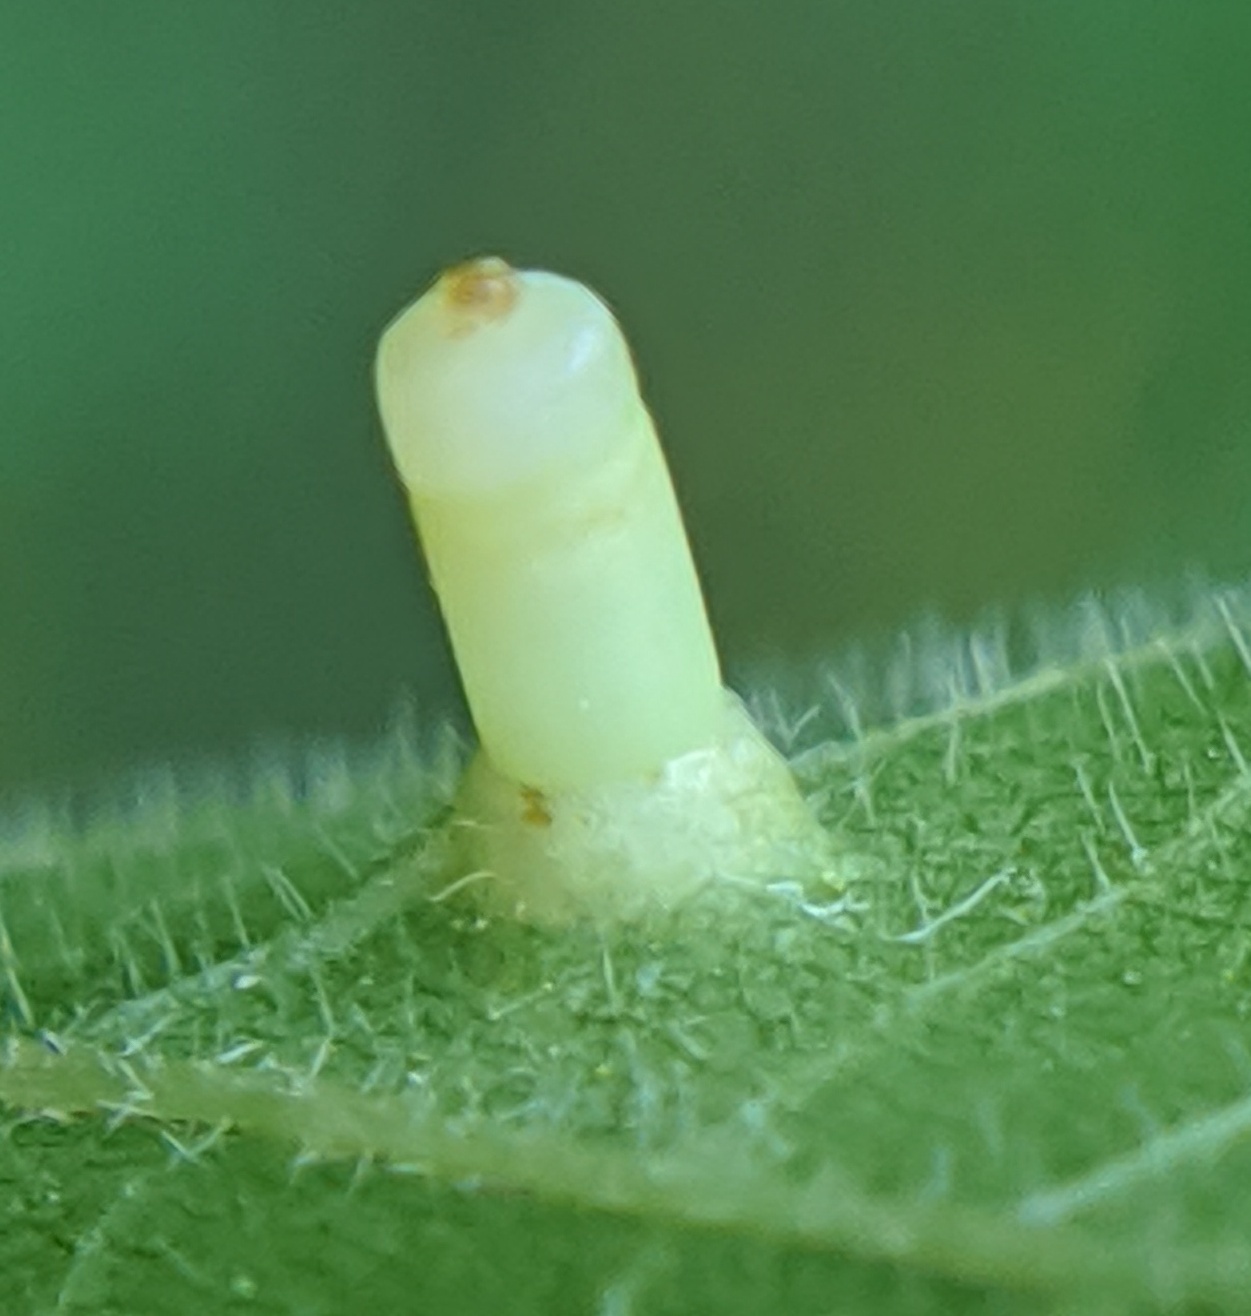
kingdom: Animalia
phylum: Arthropoda
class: Insecta
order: Diptera
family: Cecidomyiidae
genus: Caryomyia
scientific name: Caryomyia tubicola
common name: Hickory bullet gall midge
